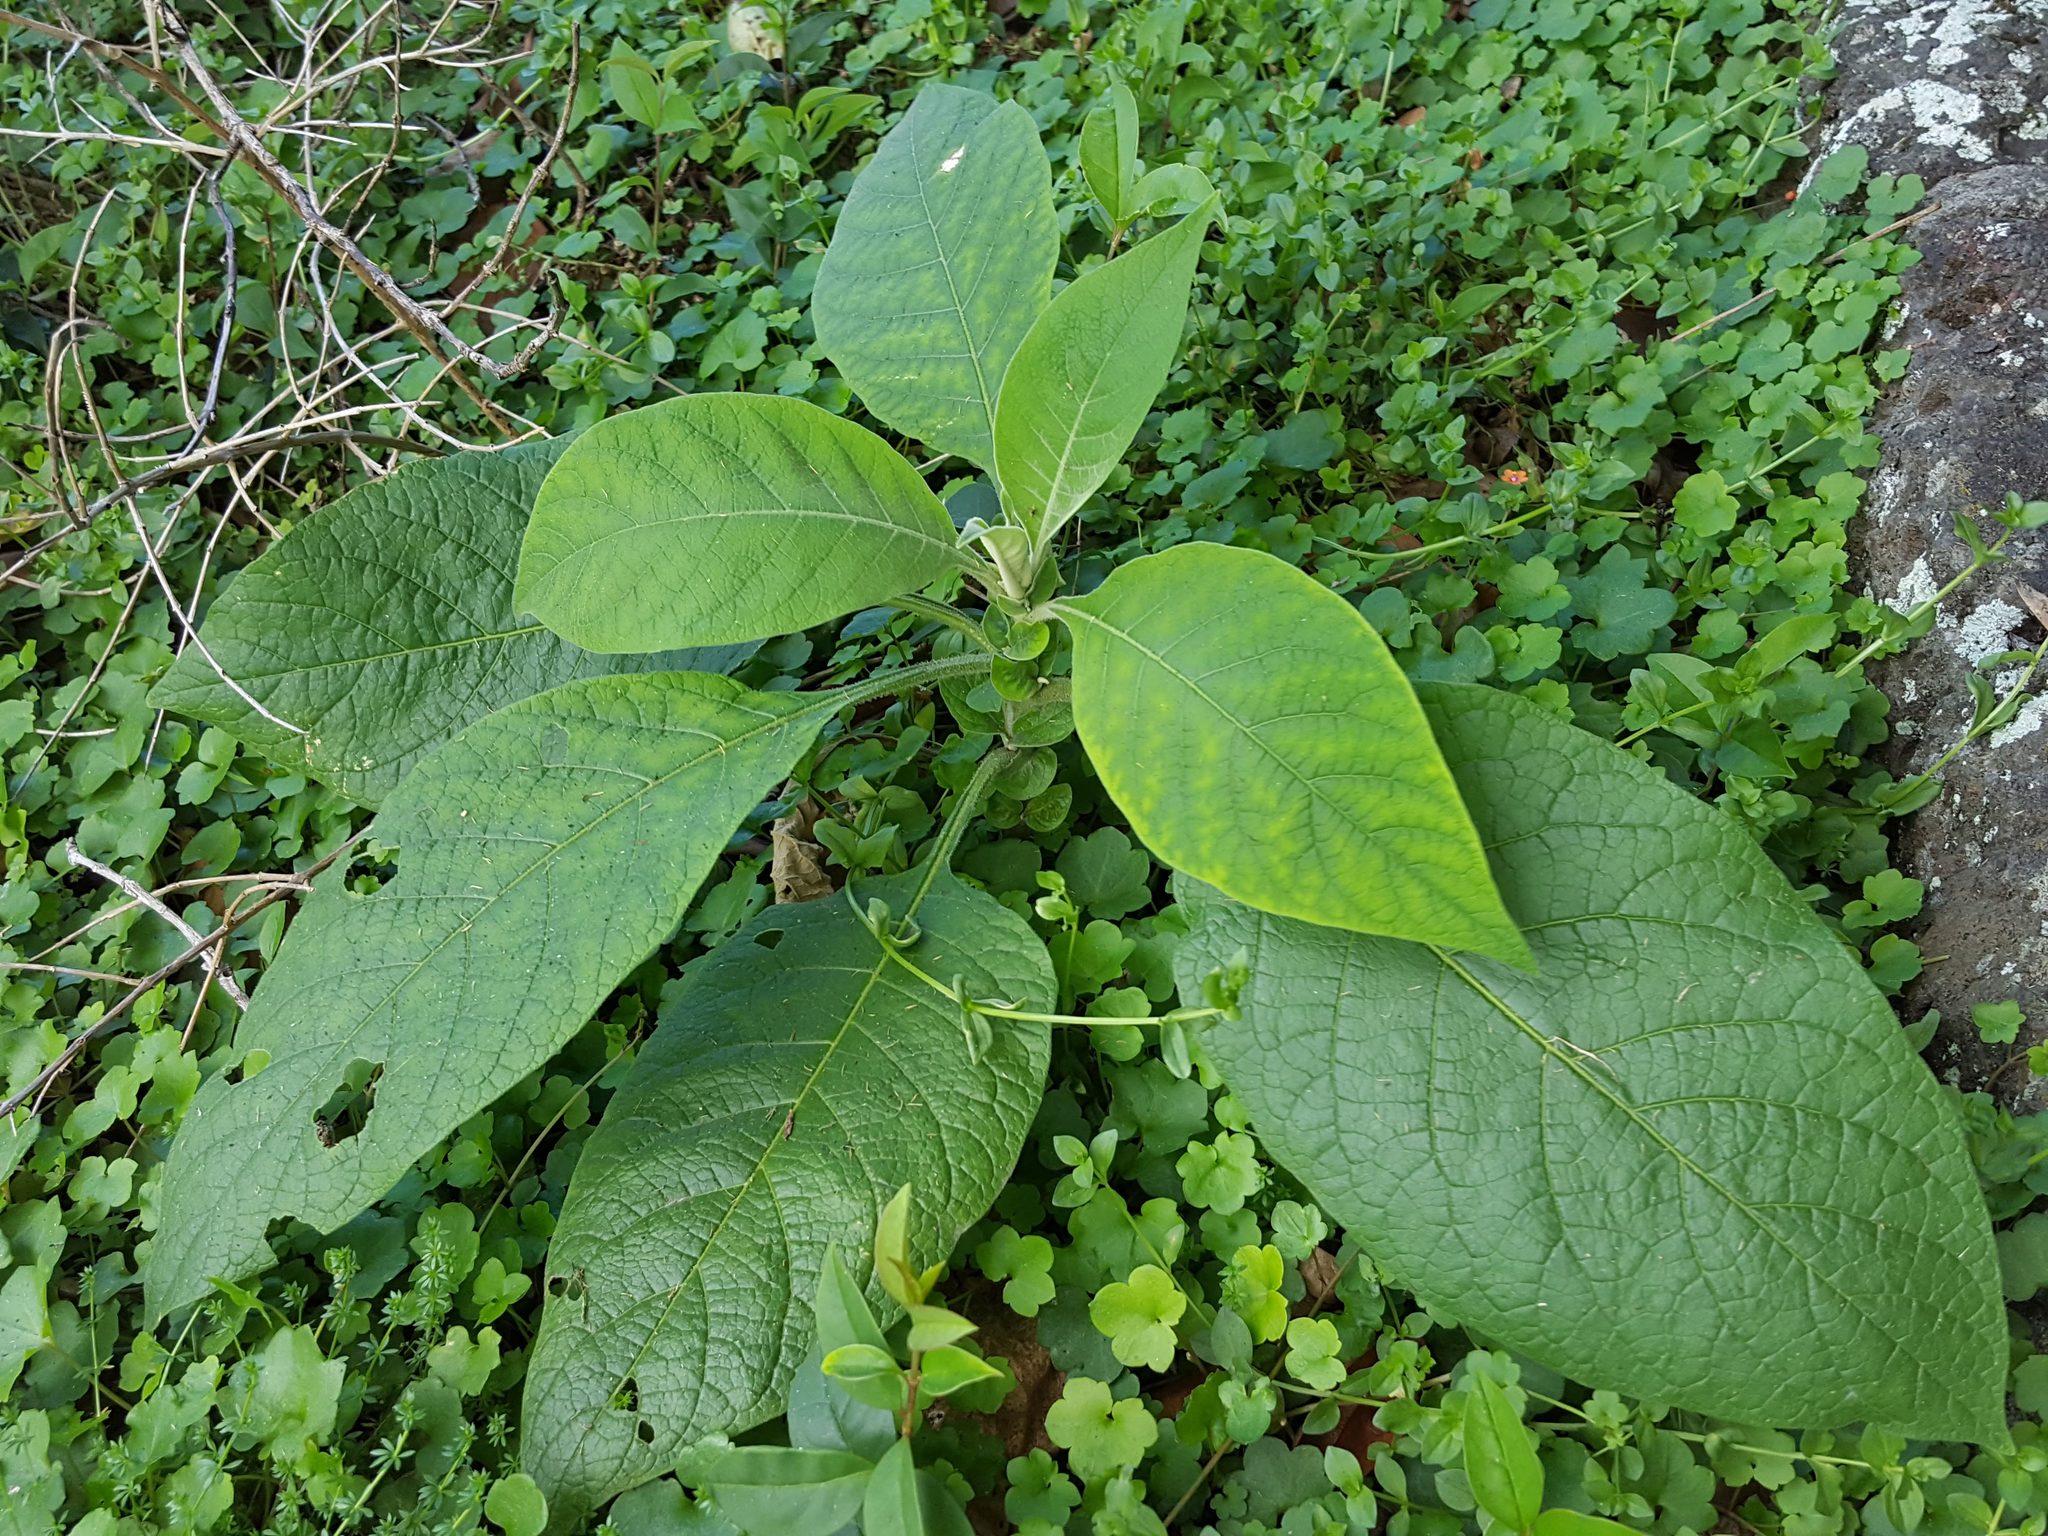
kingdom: Plantae
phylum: Tracheophyta
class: Magnoliopsida
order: Solanales
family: Solanaceae
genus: Solanum
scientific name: Solanum mauritianum
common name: Earleaf nightshade
